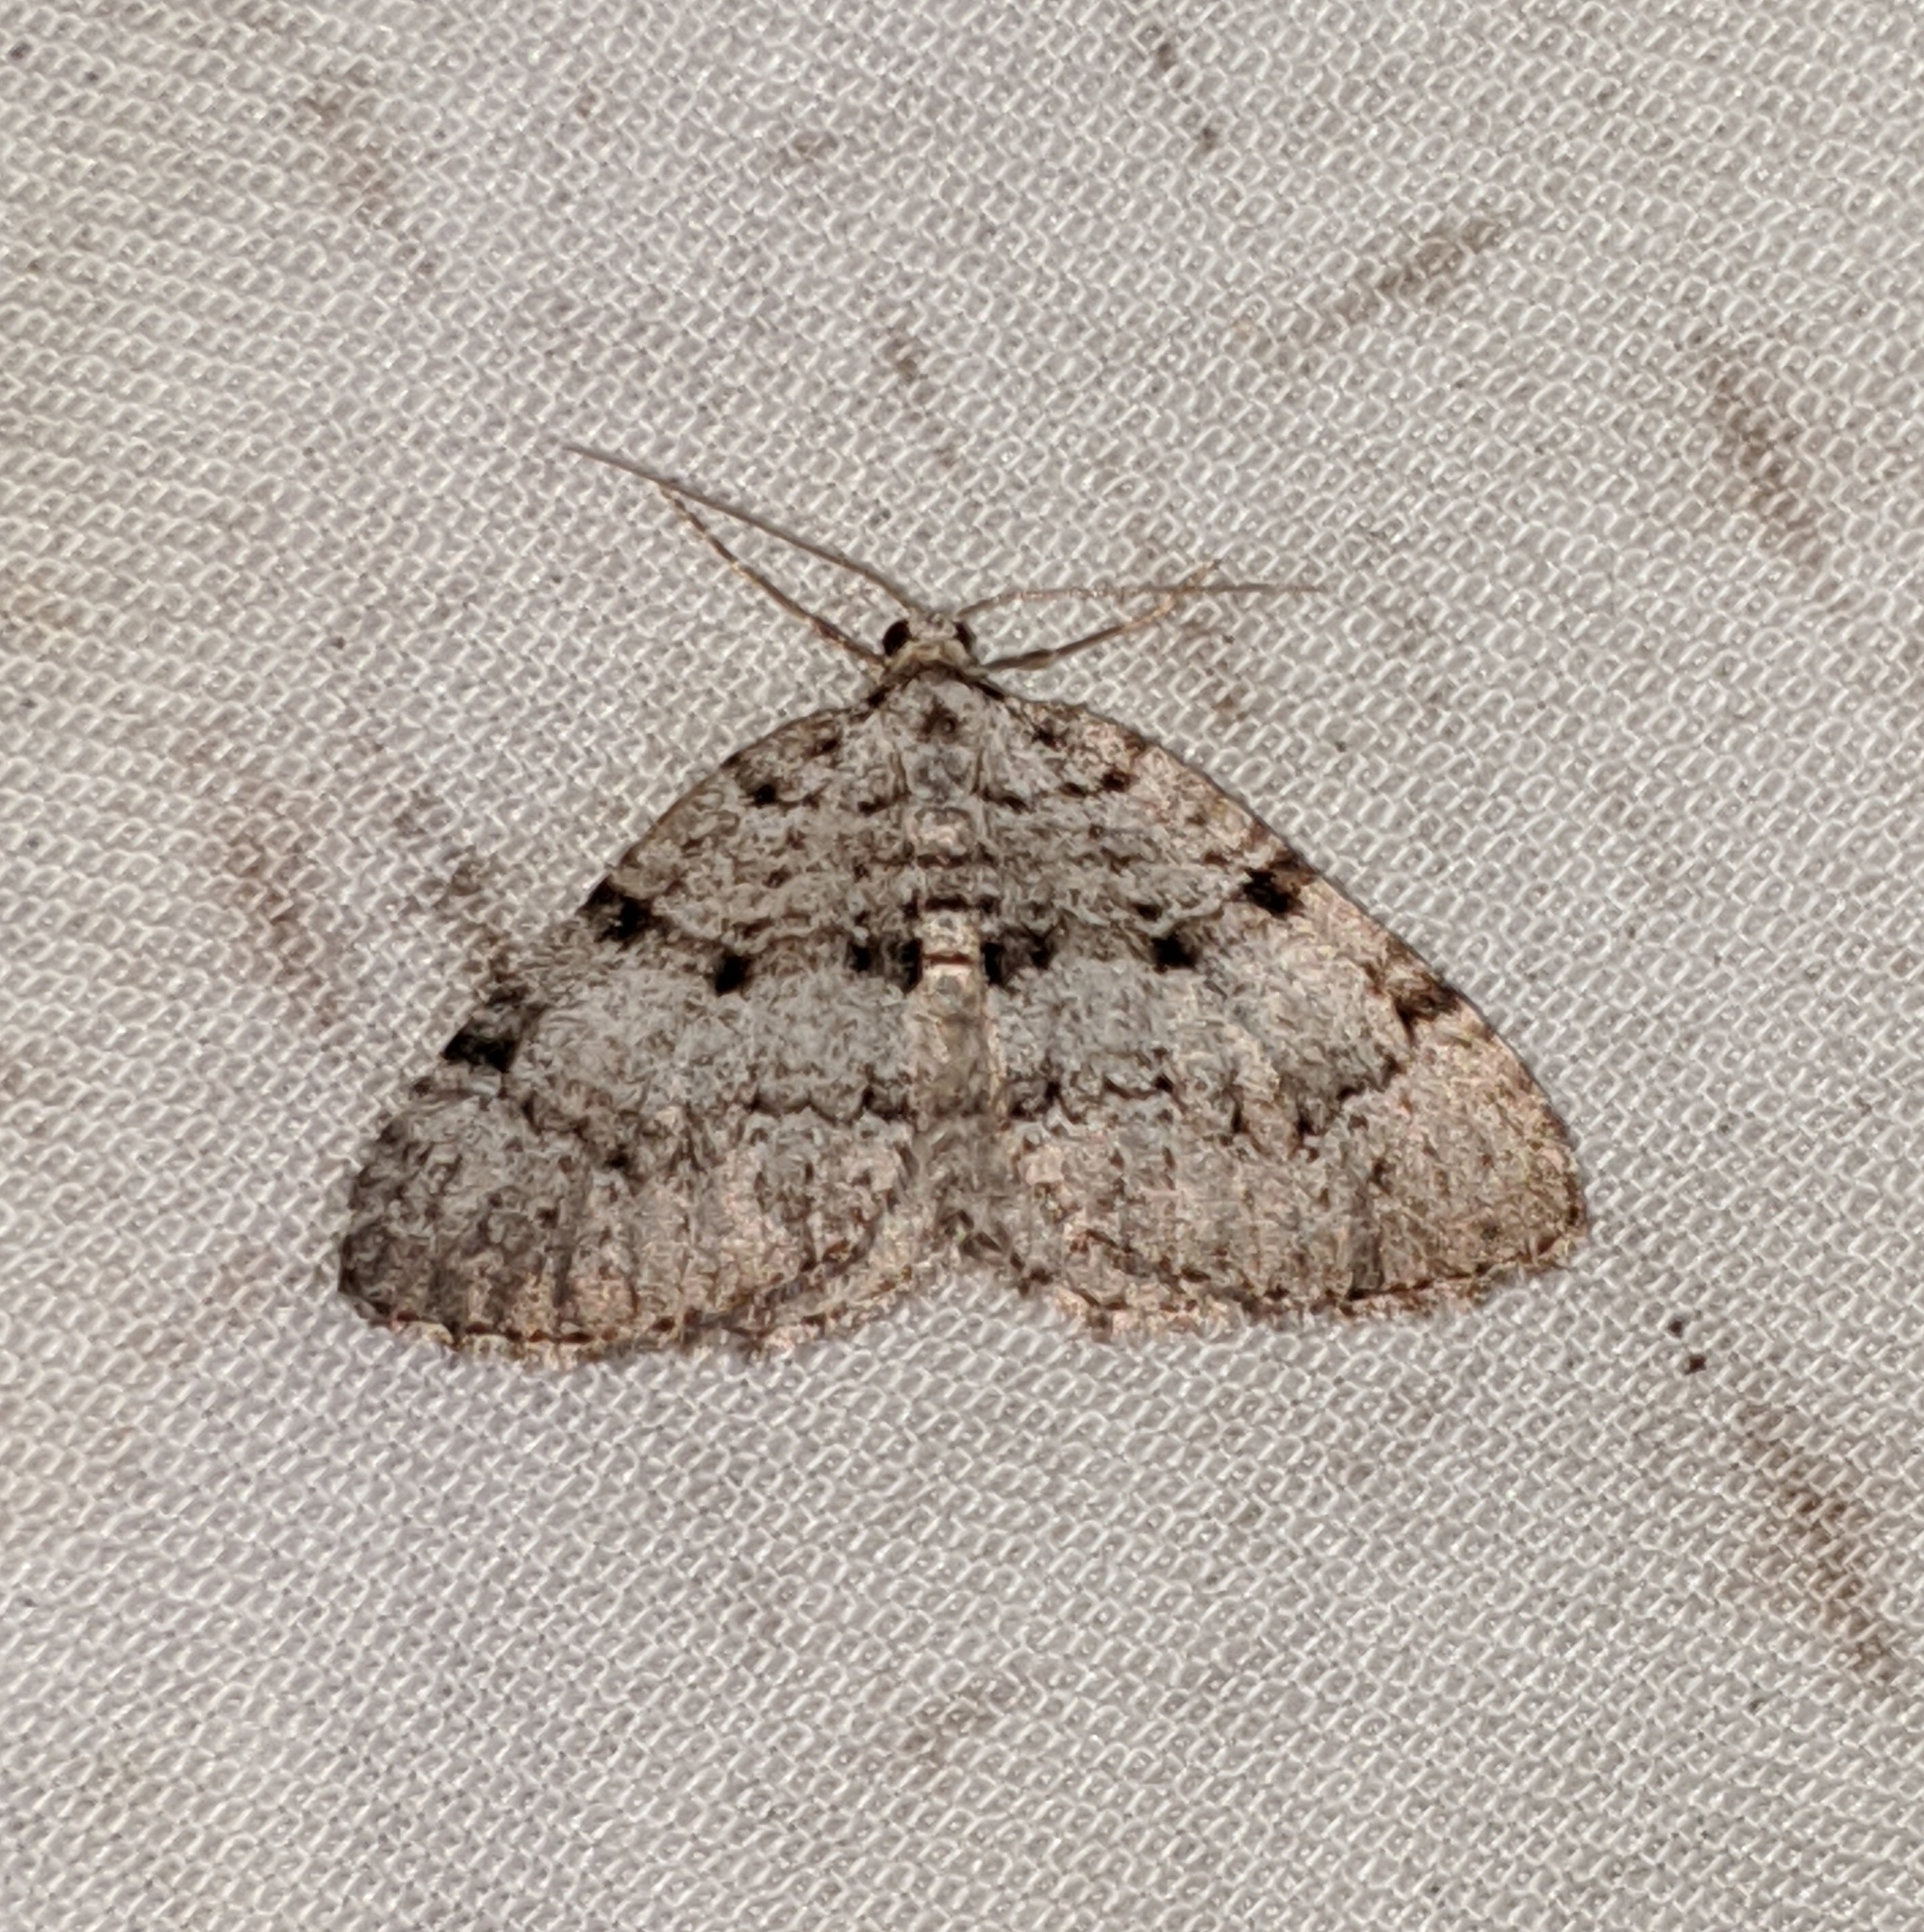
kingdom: Animalia
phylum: Arthropoda
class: Insecta
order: Lepidoptera
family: Geometridae
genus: Perizoma
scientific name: Perizoma curvilinea
